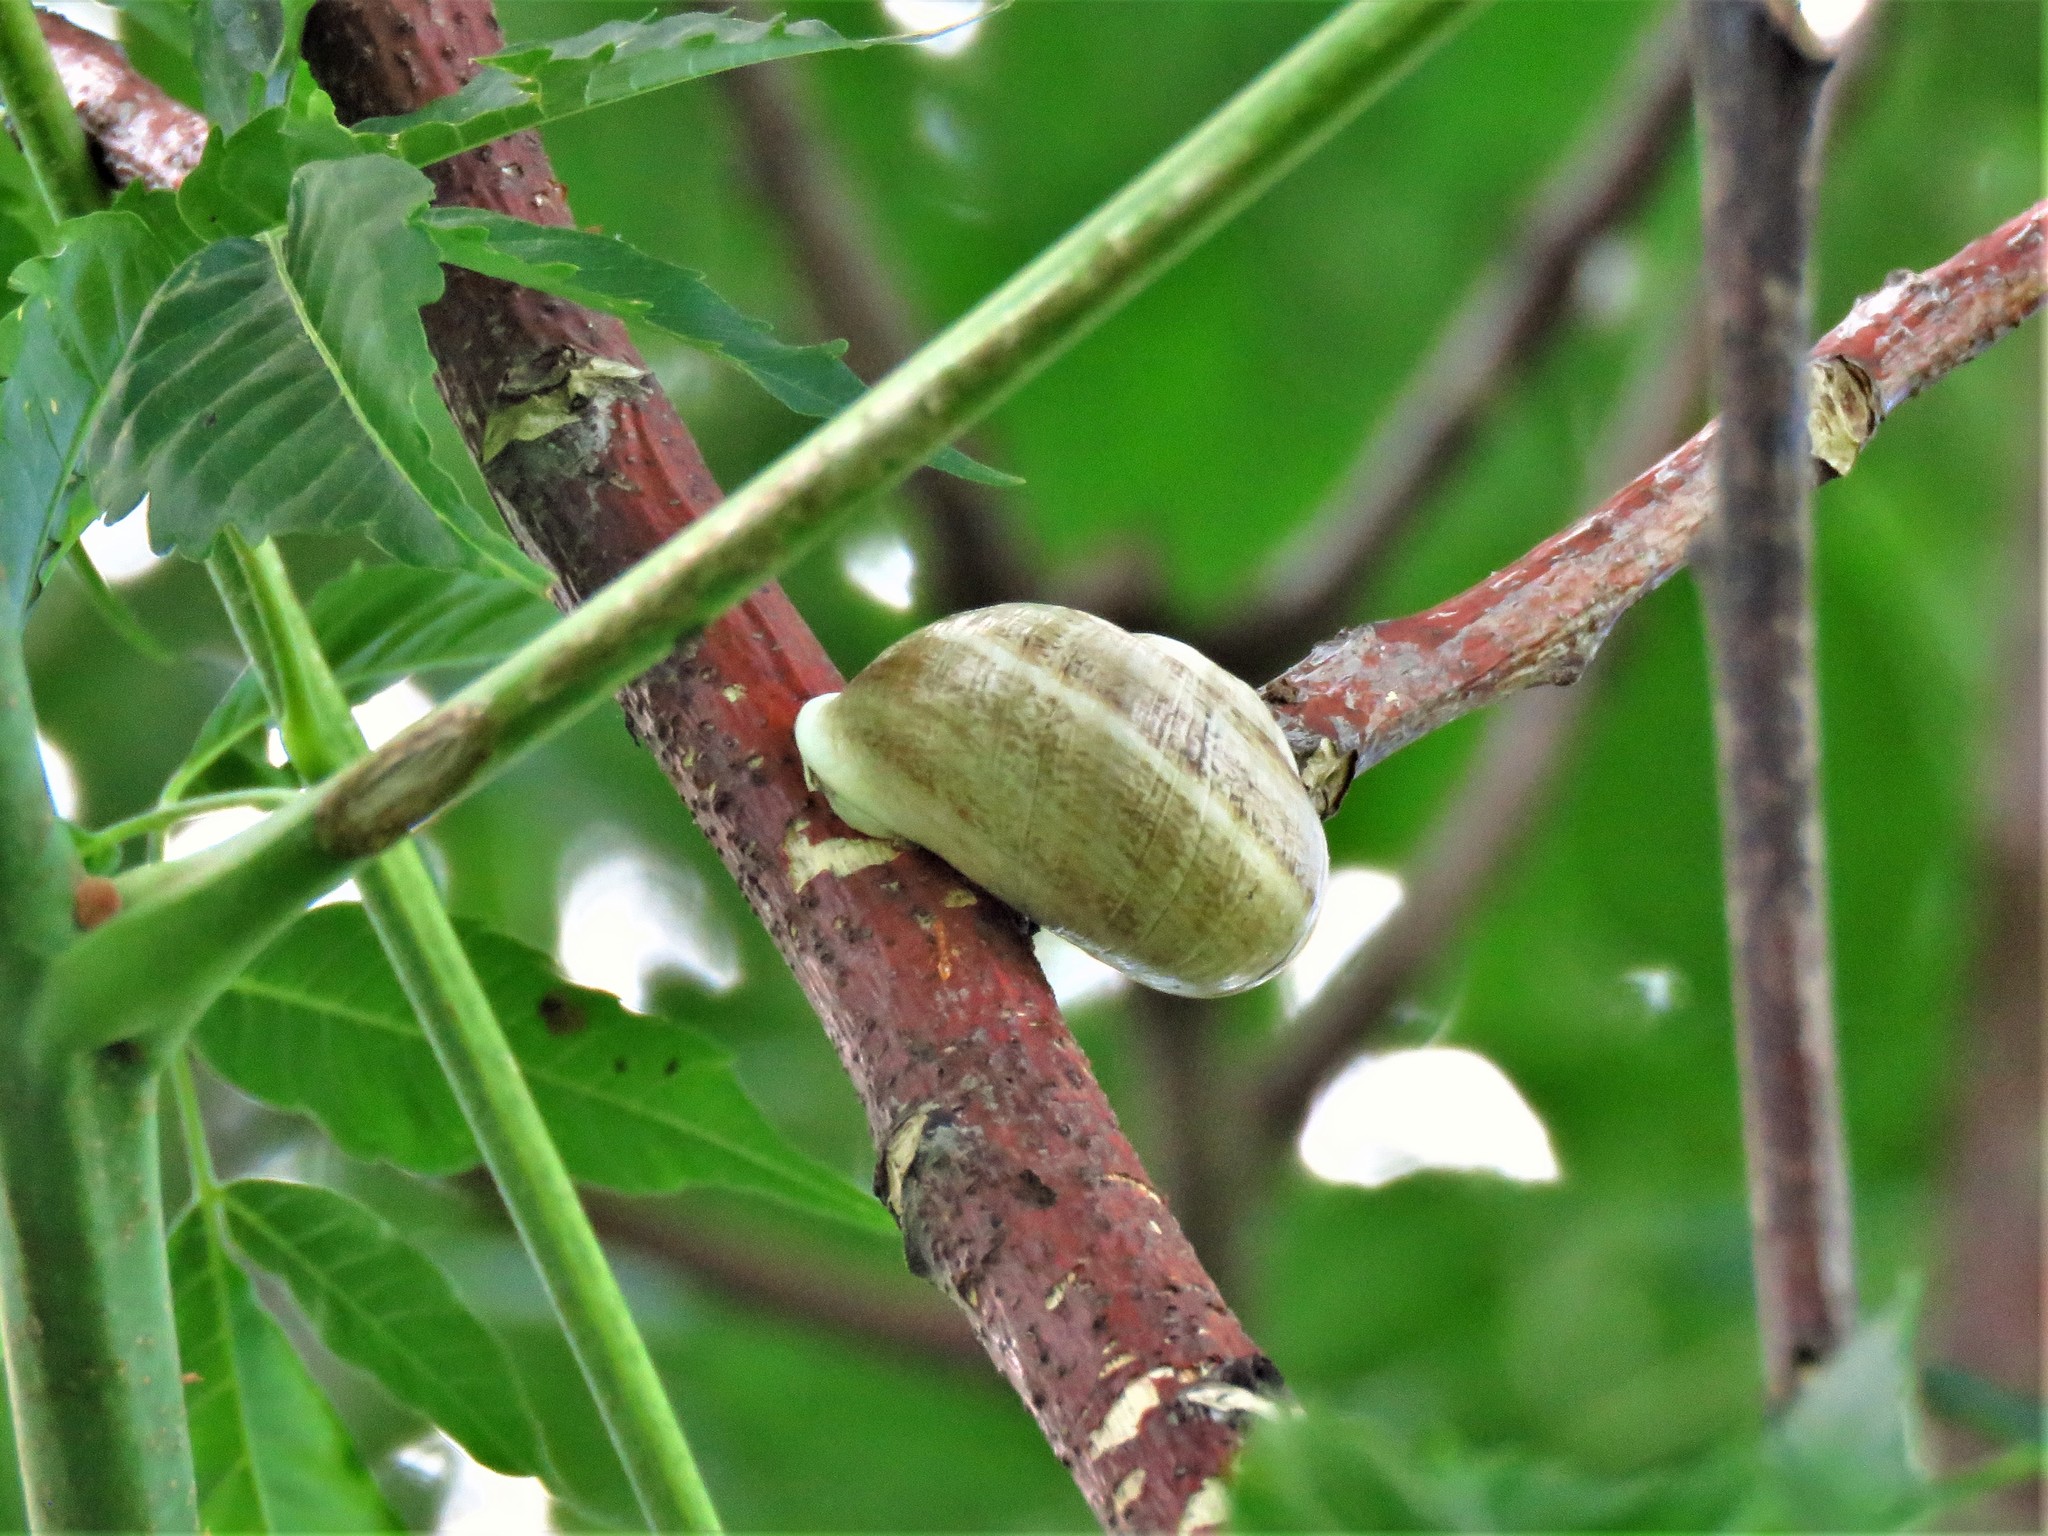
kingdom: Animalia
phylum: Mollusca
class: Gastropoda
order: Stylommatophora
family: Helicidae
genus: Otala
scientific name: Otala lactea
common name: Milk snail
